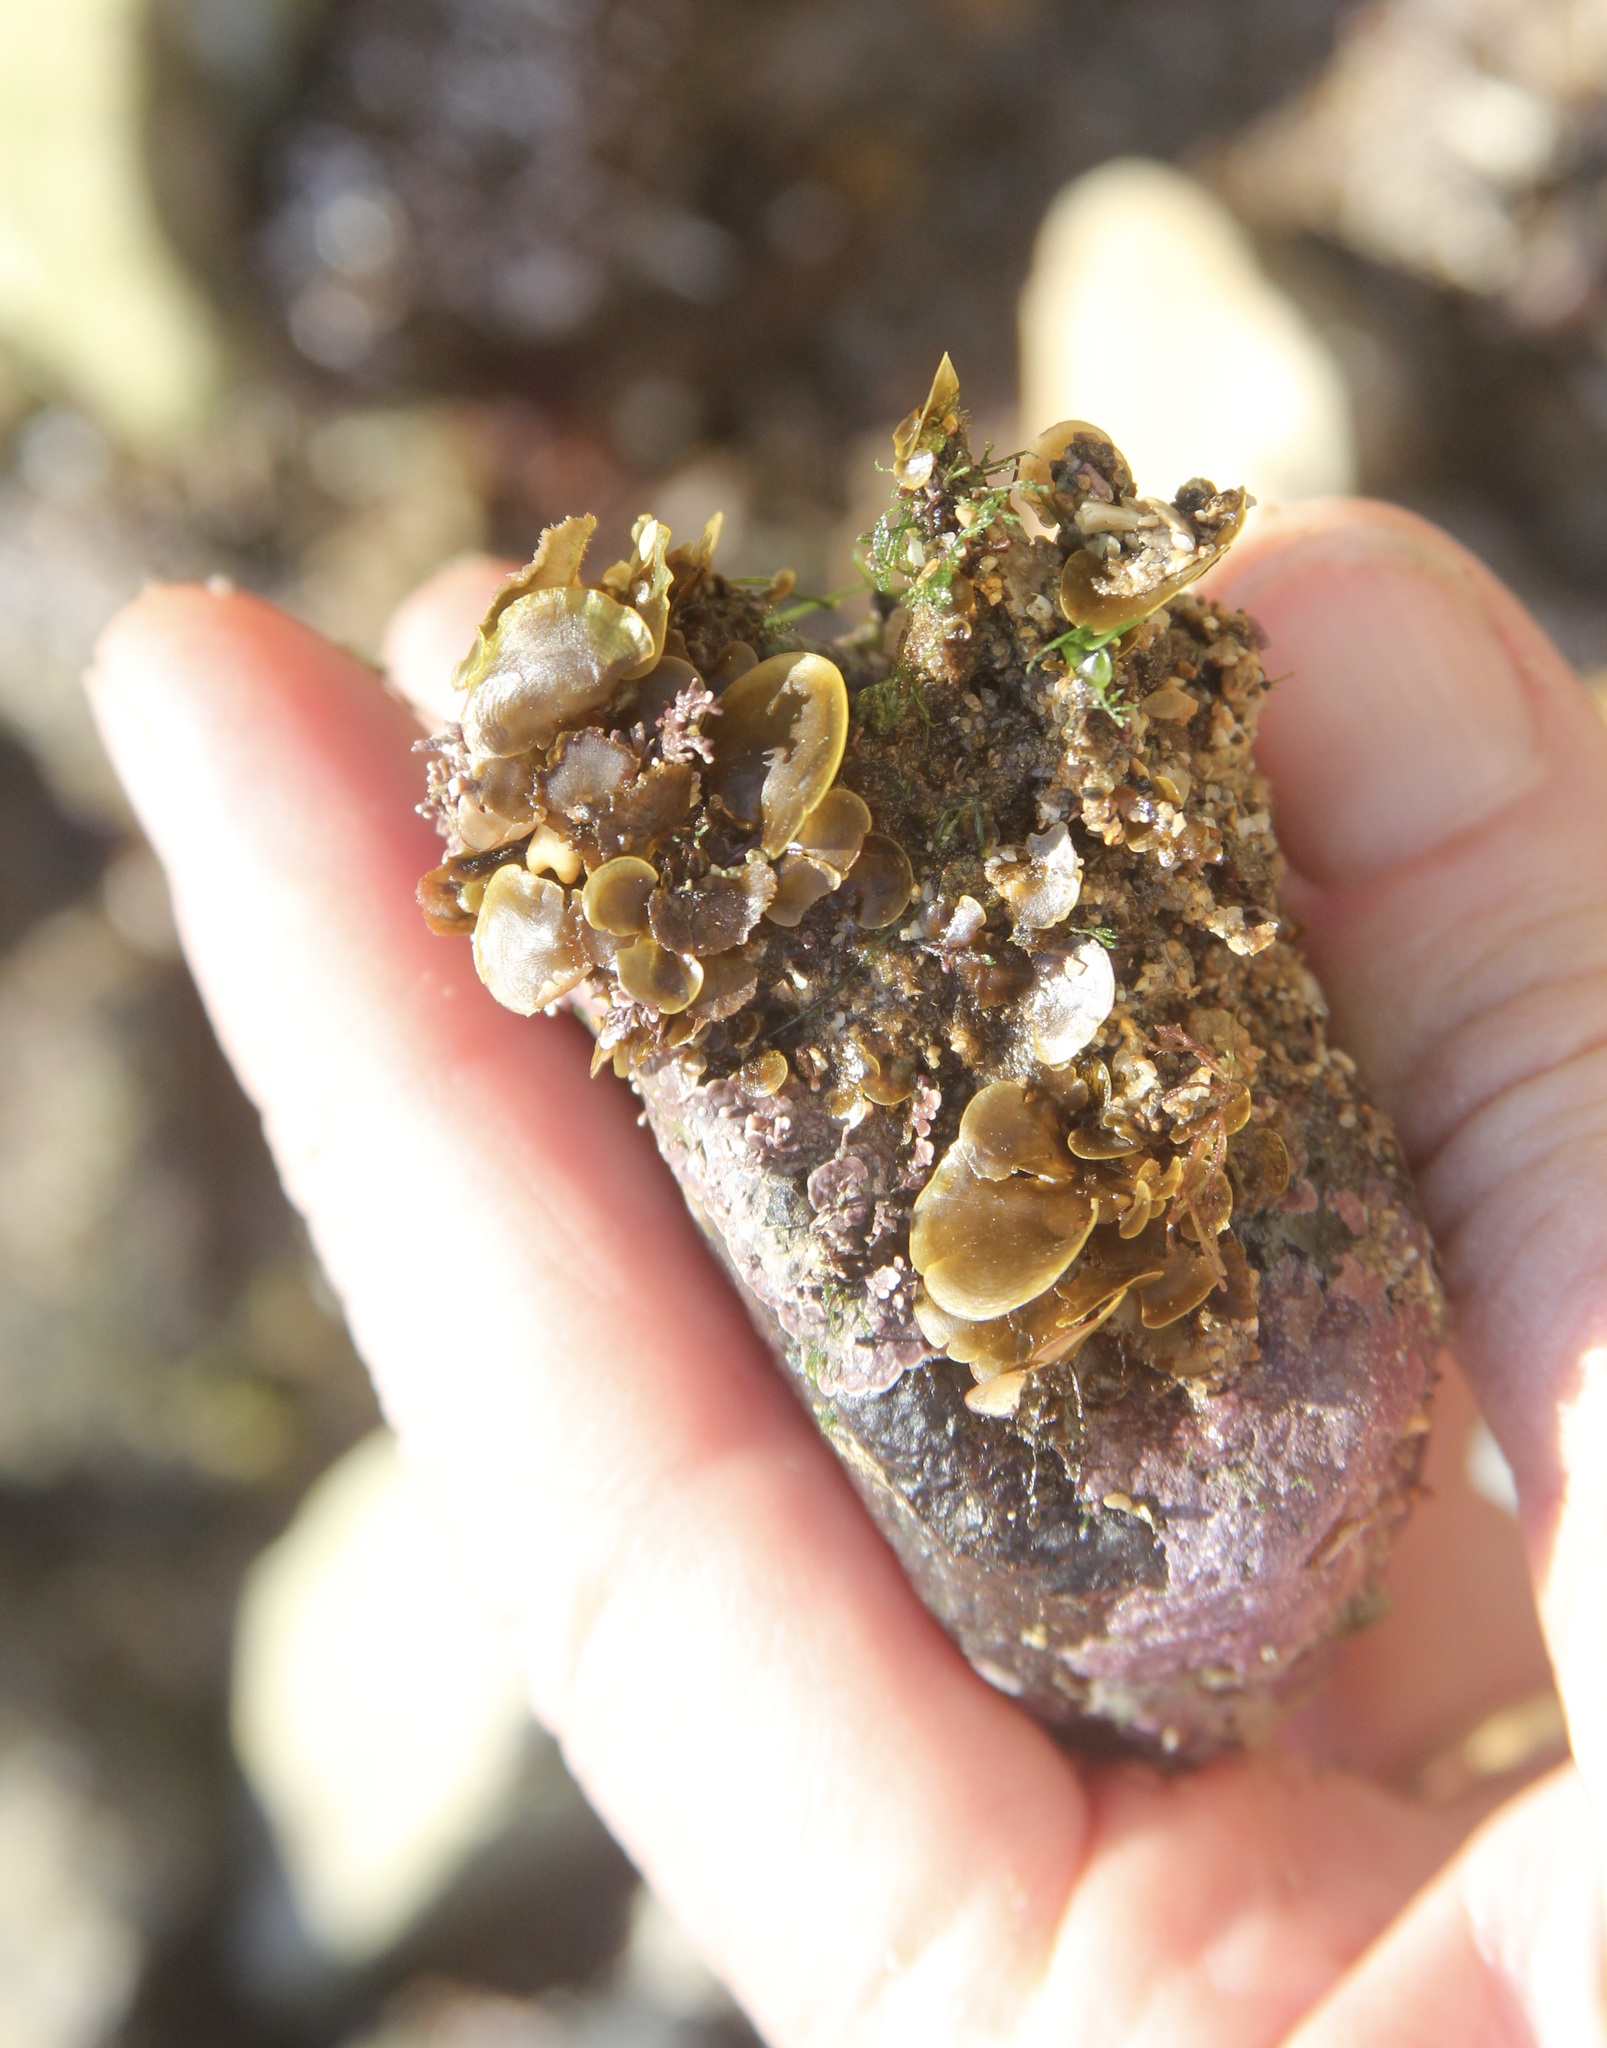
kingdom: Chromista
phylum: Ochrophyta
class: Phaeophyceae
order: Dictyotales
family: Dictyotaceae
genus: Zonaria
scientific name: Zonaria farlowii
